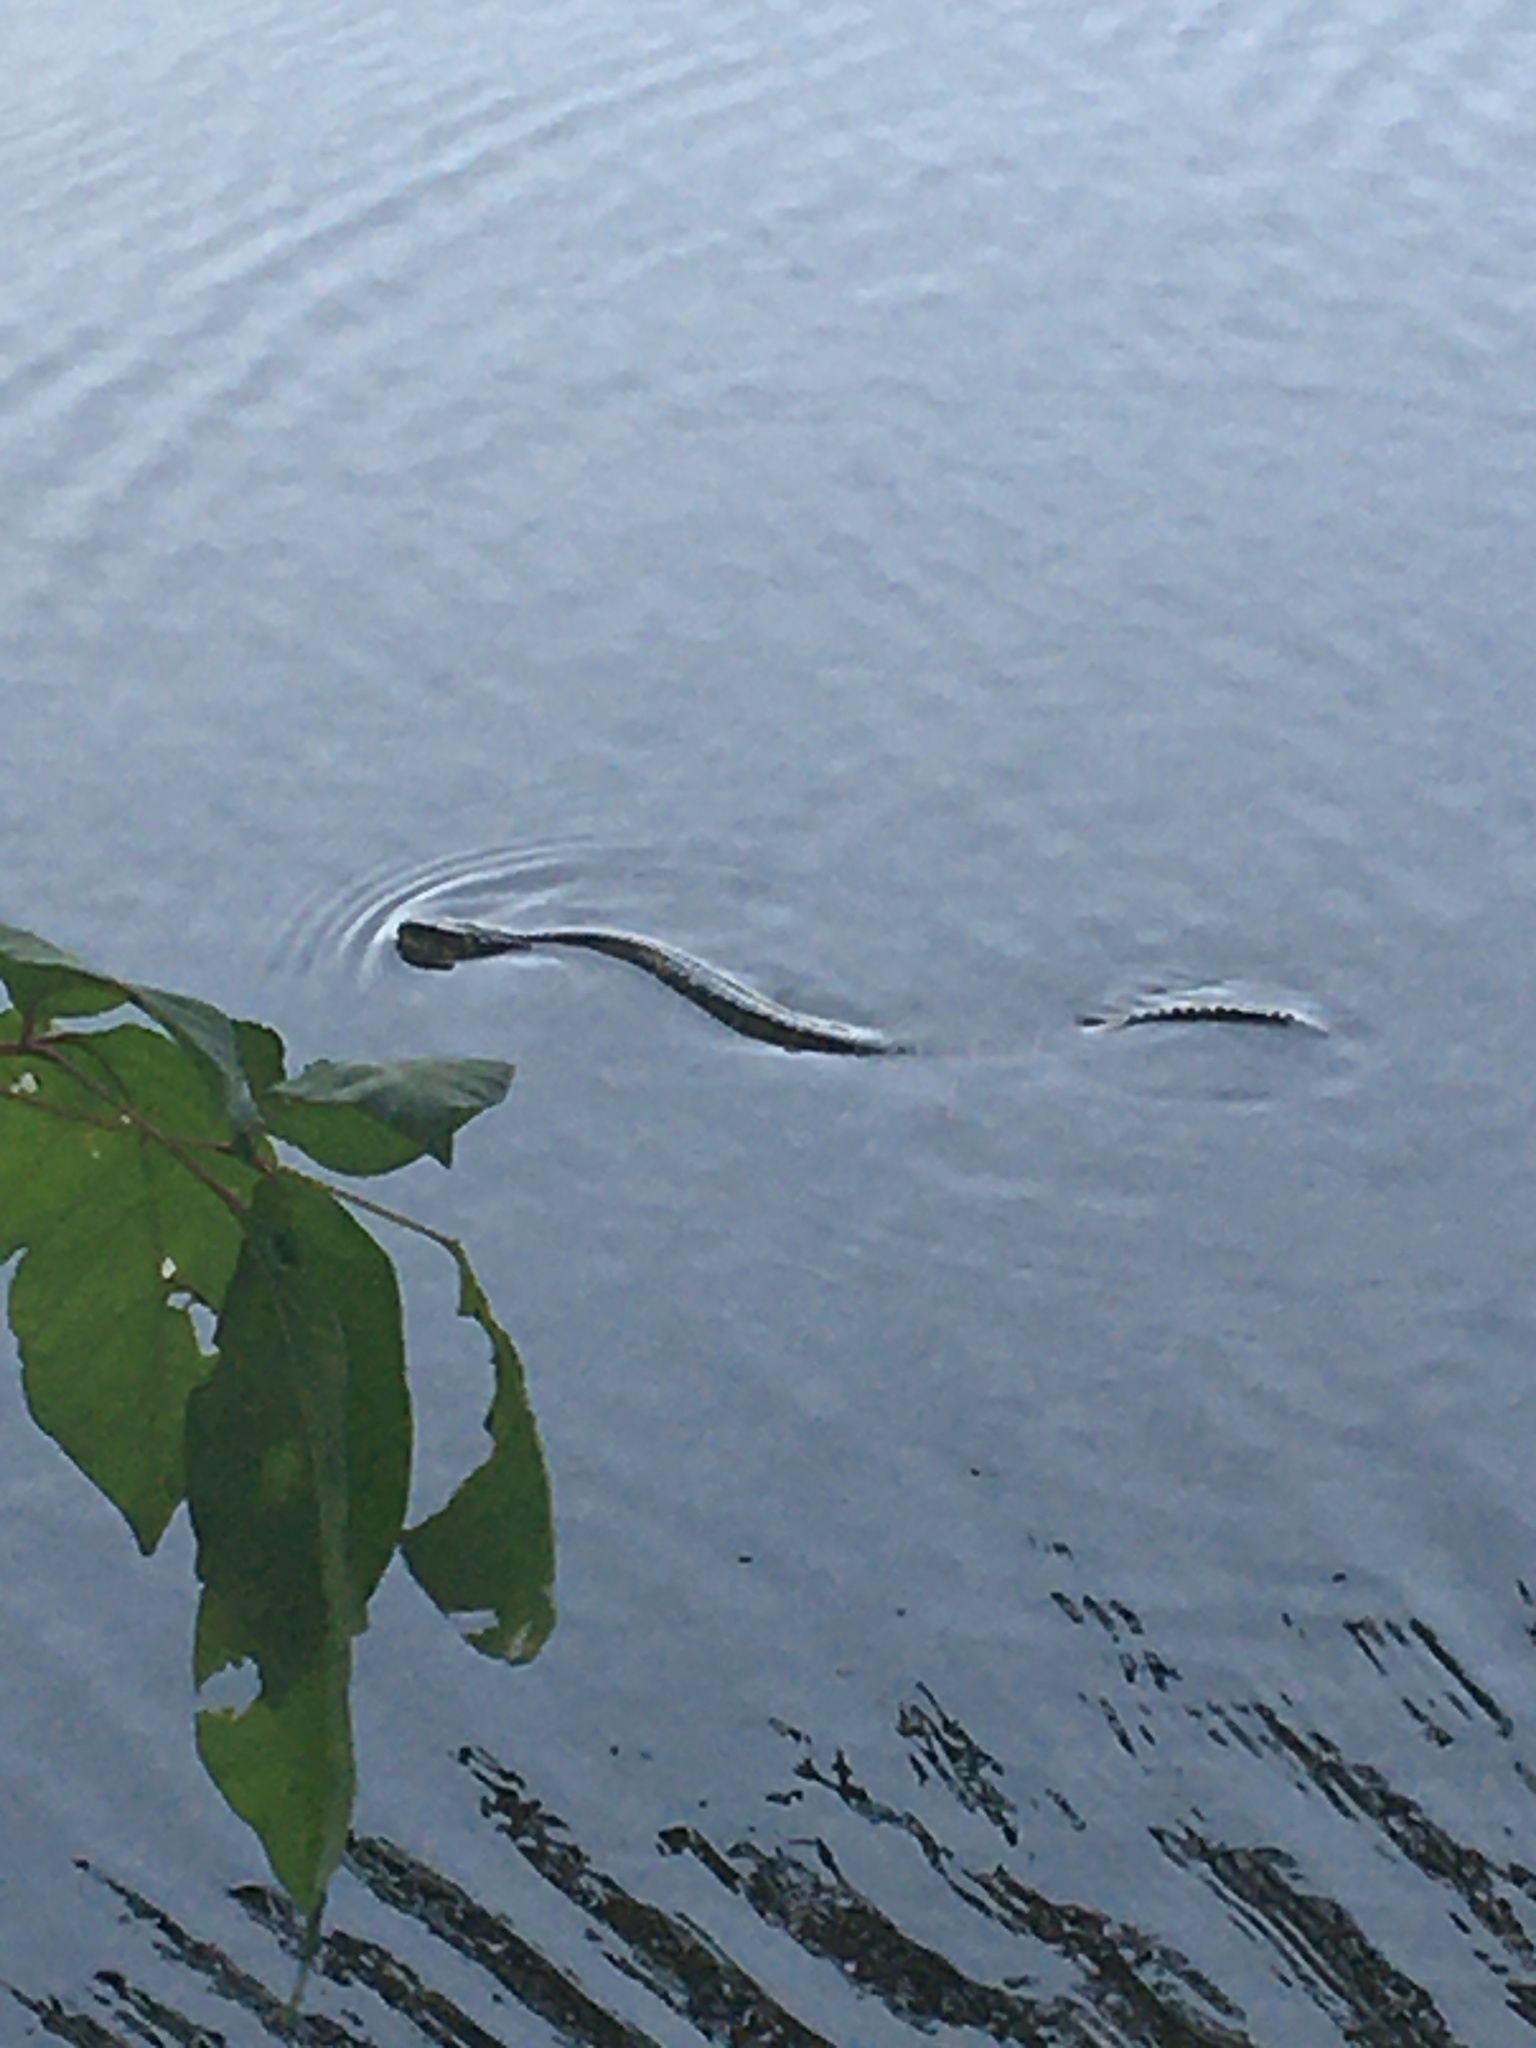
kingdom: Animalia
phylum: Chordata
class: Squamata
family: Colubridae
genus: Nerodia
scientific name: Nerodia sipedon
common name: Northern water snake
